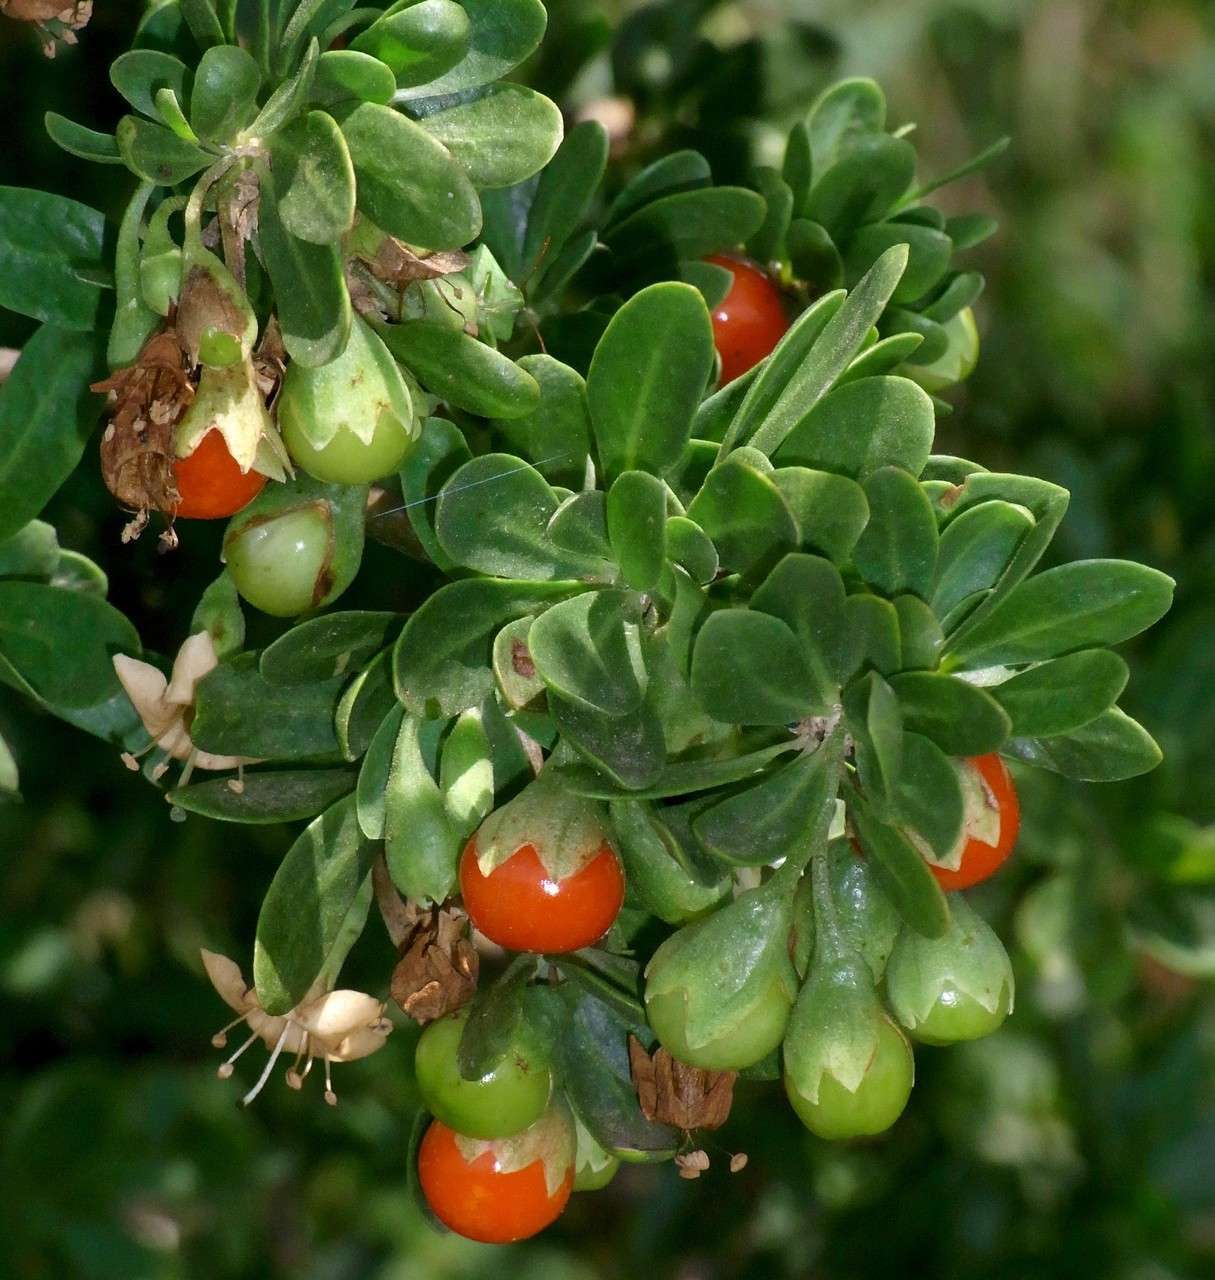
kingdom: Plantae
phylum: Tracheophyta
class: Magnoliopsida
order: Solanales
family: Solanaceae
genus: Lycium
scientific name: Lycium ferocissimum
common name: African boxthorn
